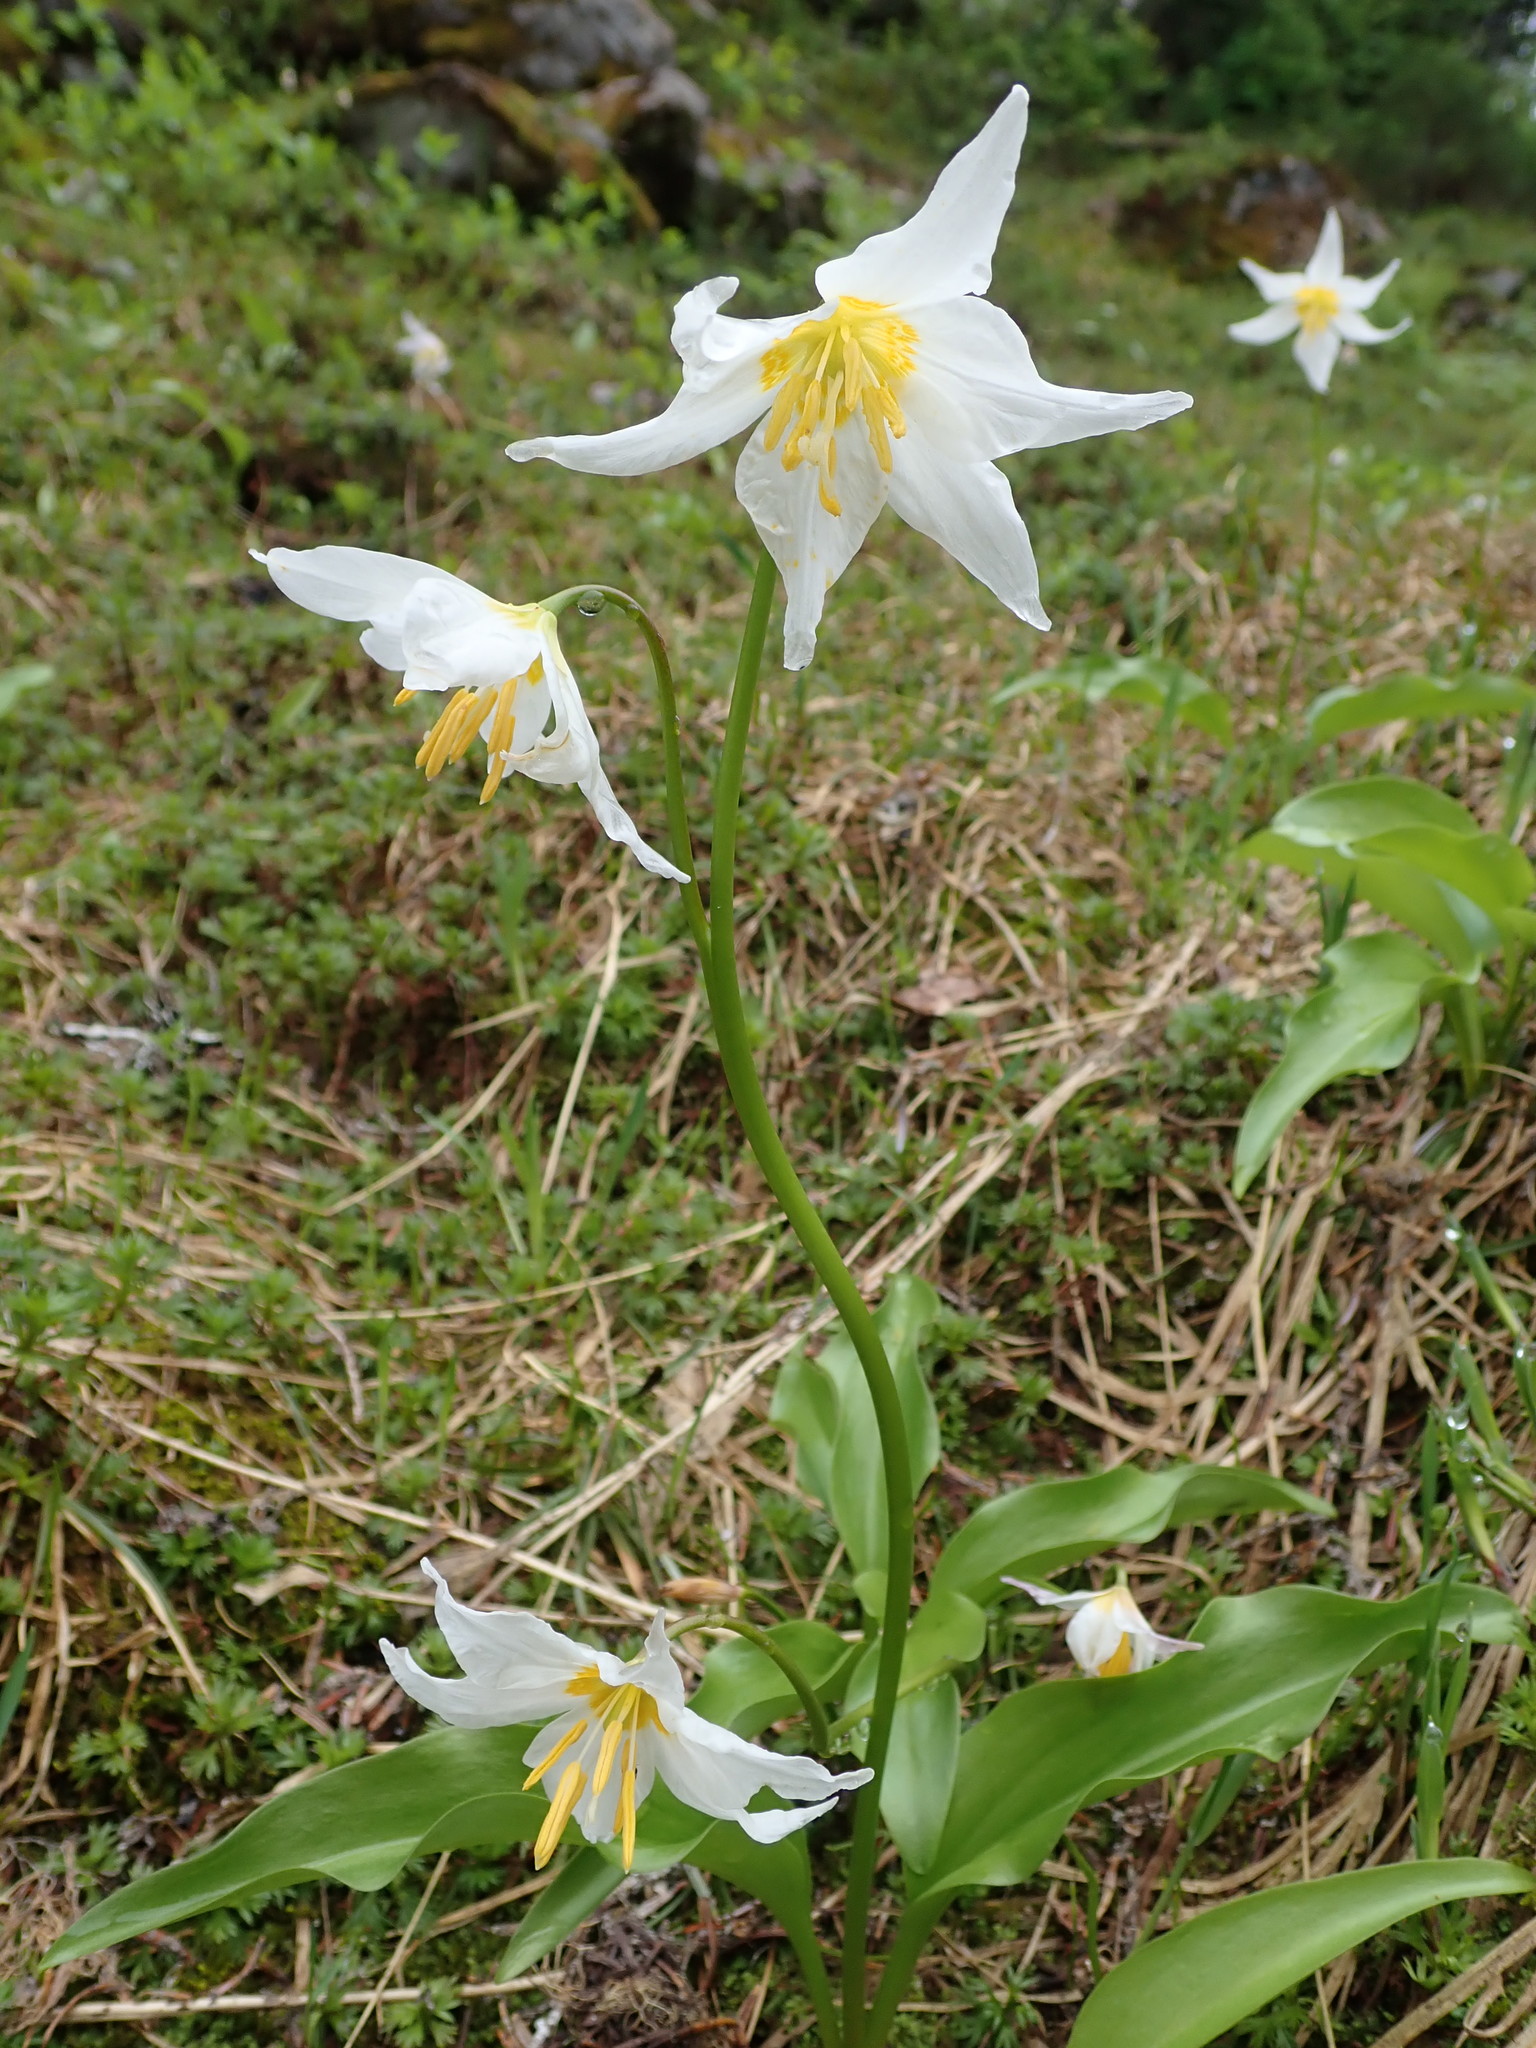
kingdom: Plantae
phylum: Tracheophyta
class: Liliopsida
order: Liliales
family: Liliaceae
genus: Erythronium
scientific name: Erythronium montanum
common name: Avalanche lily
